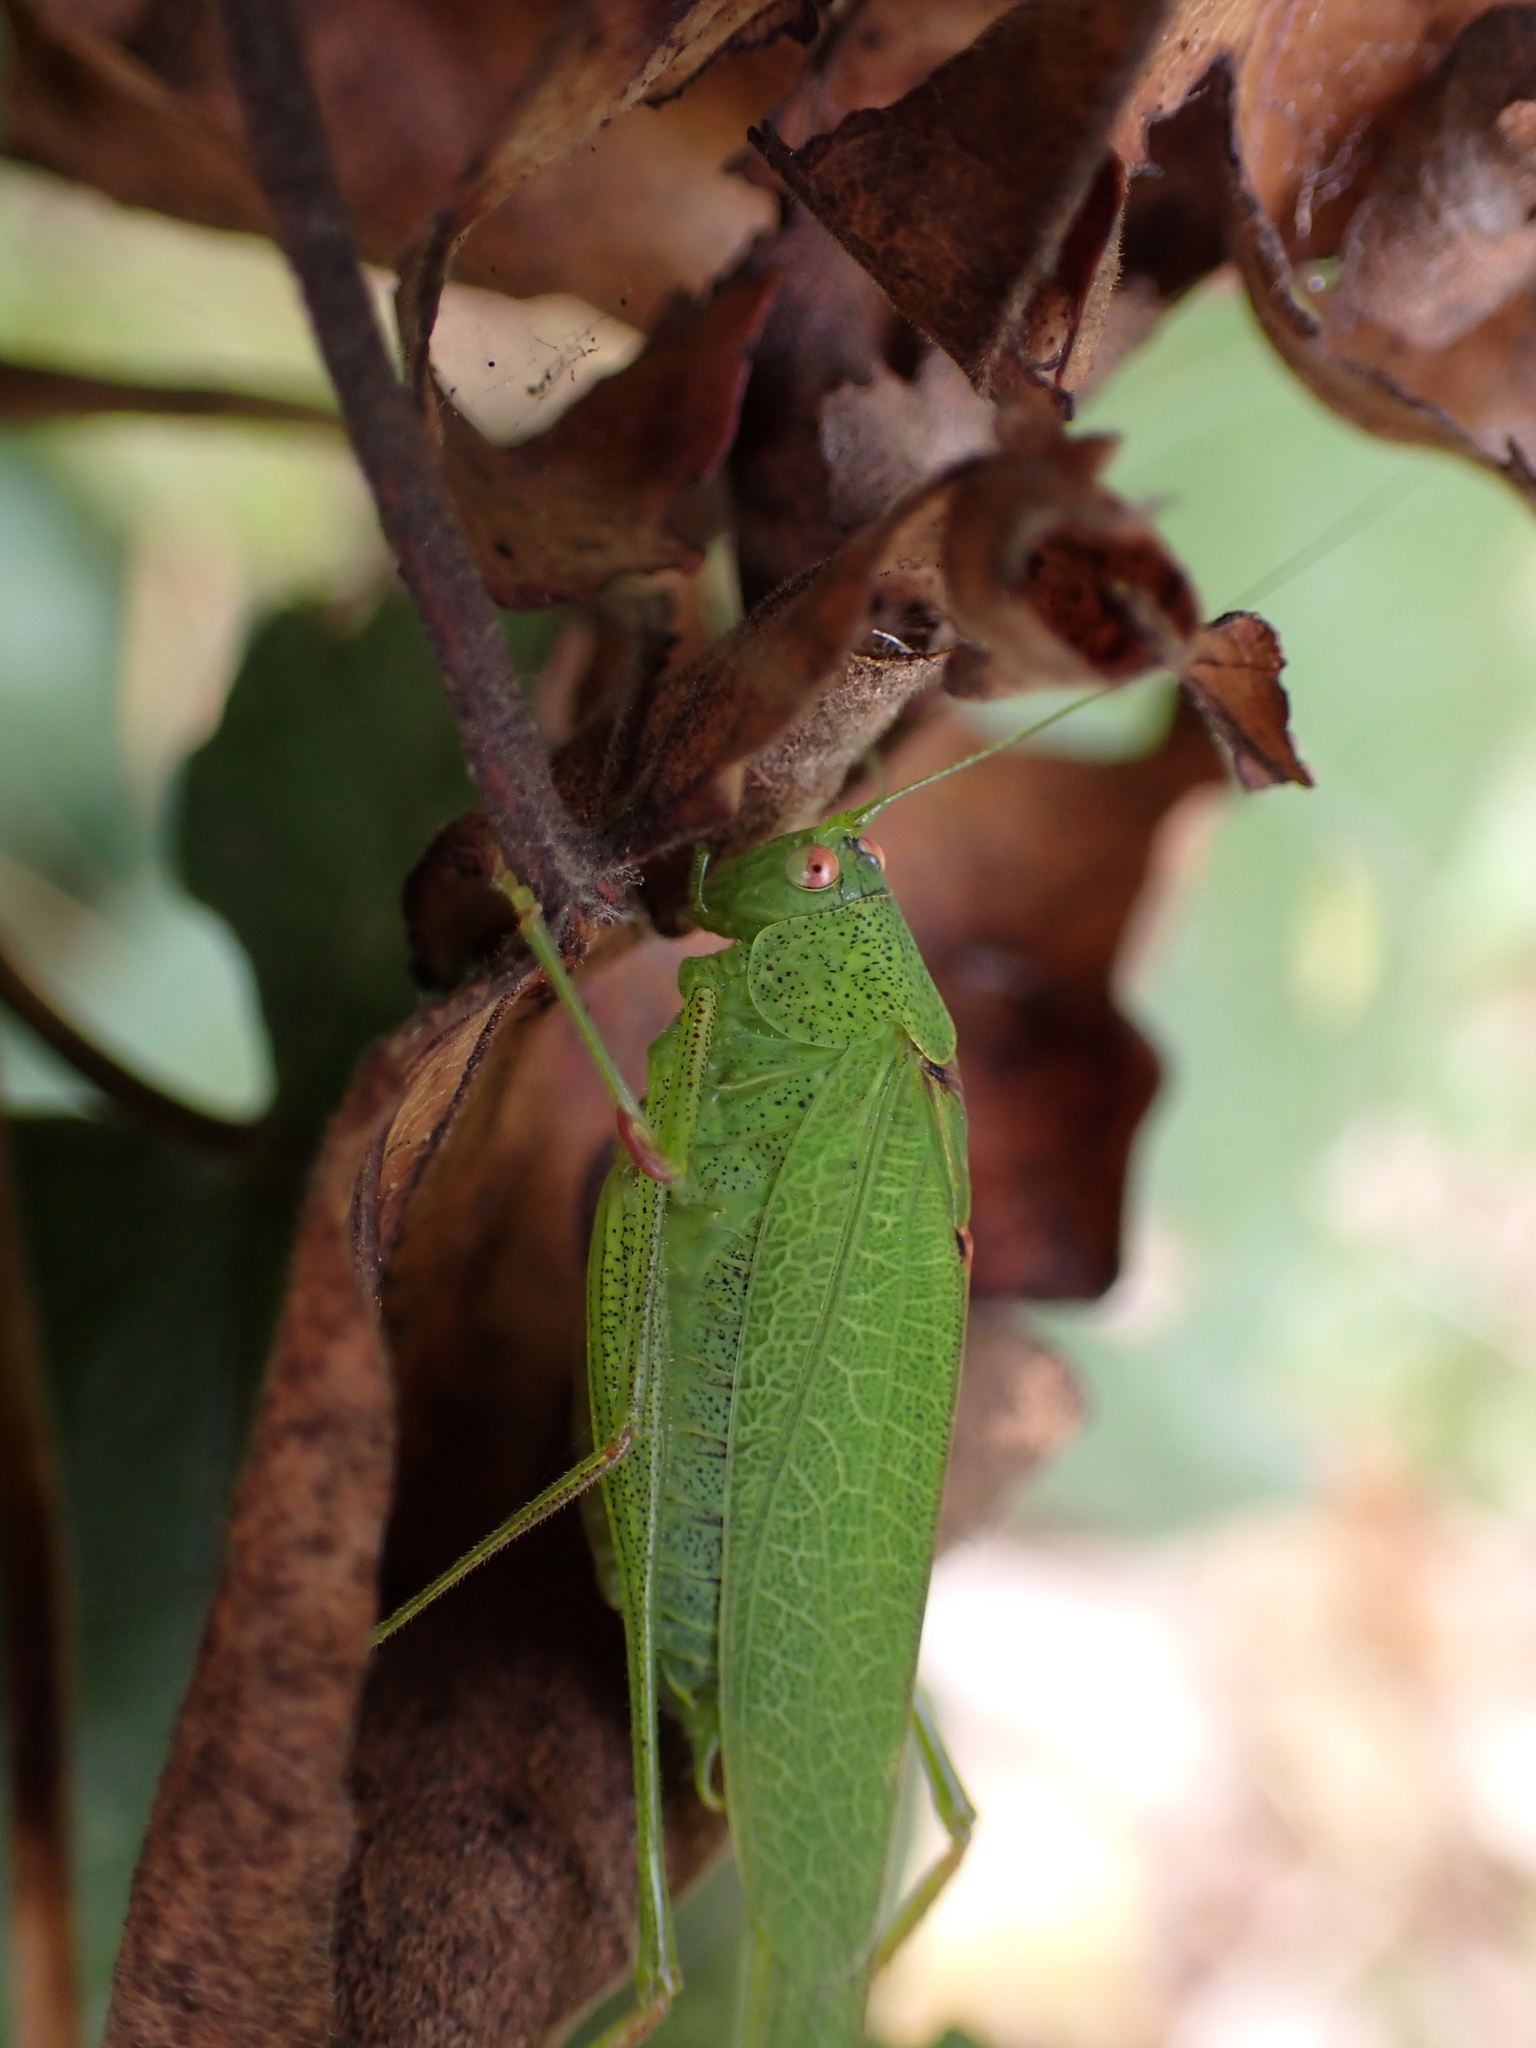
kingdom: Animalia
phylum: Arthropoda
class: Insecta
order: Orthoptera
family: Tettigoniidae
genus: Phaneroptera
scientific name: Phaneroptera nana
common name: Southern sickle bush-cricket
